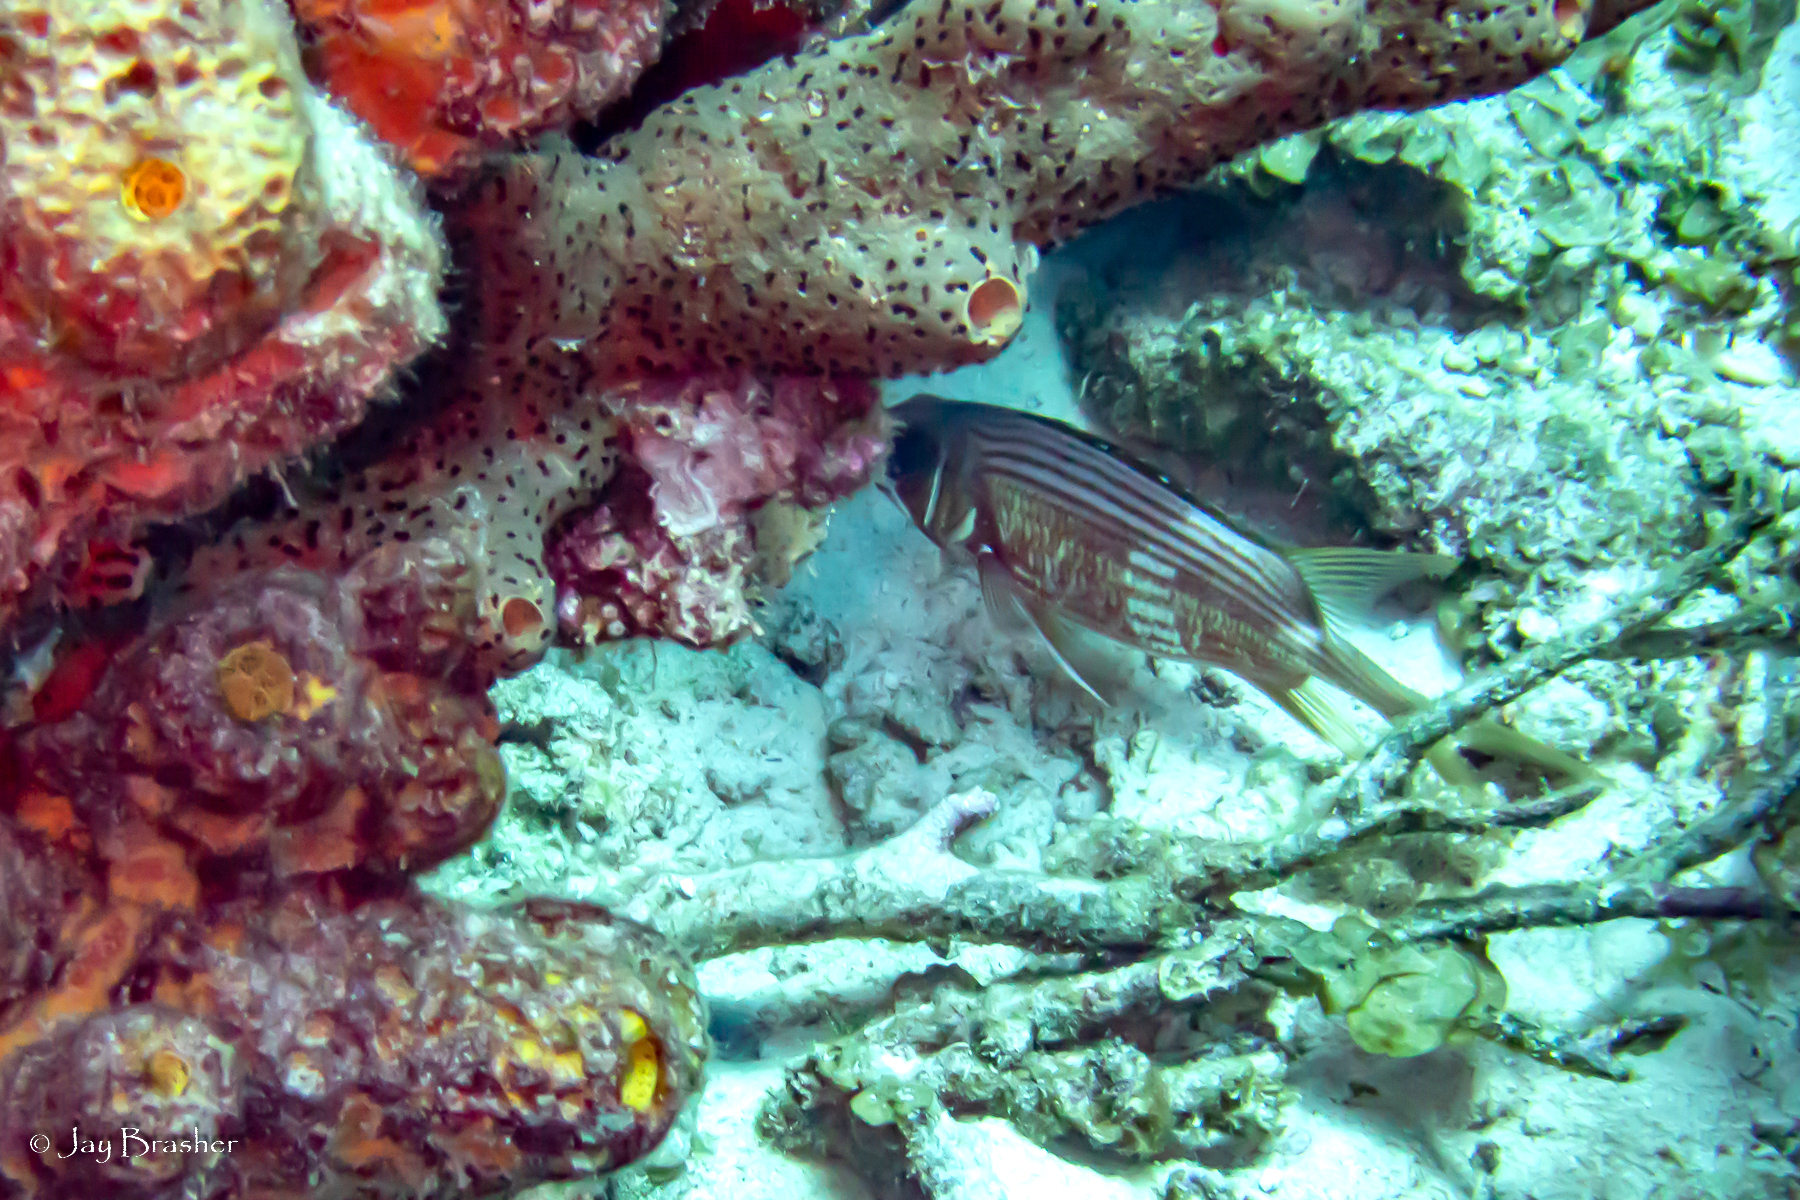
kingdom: Animalia
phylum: Porifera
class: Demospongiae
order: Agelasida
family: Agelasidae
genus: Agelas
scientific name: Agelas conifera
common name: Brown tube sponge
